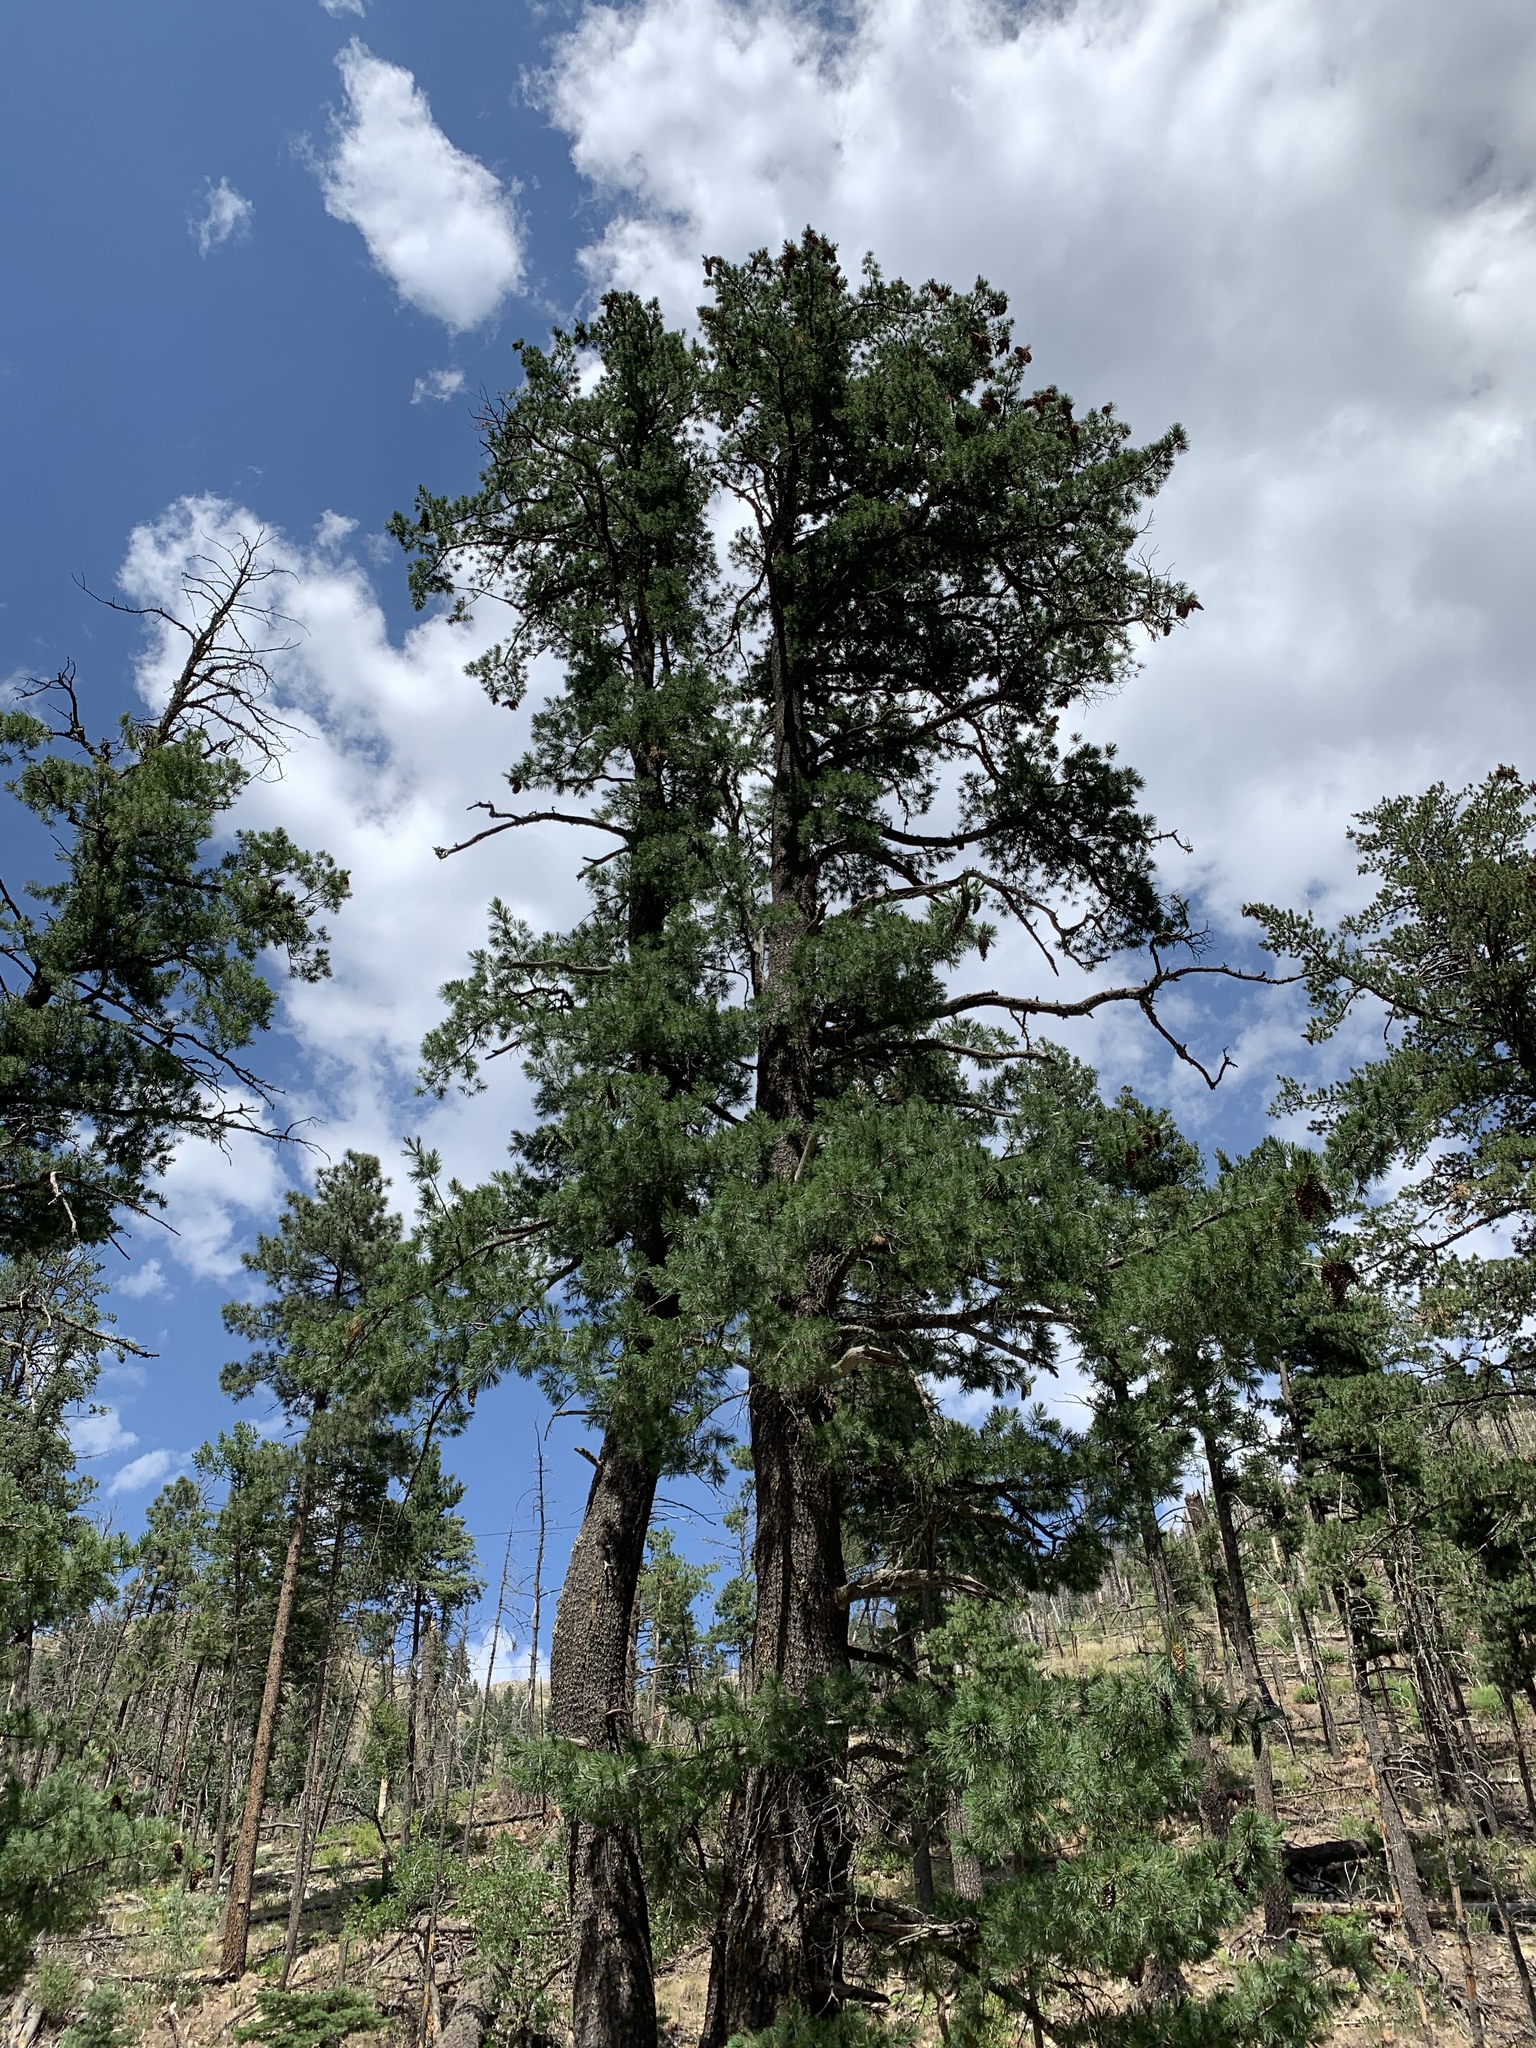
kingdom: Plantae
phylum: Tracheophyta
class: Pinopsida
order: Pinales
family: Pinaceae
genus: Pinus
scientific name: Pinus strobiformis
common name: Southwestern white pine
